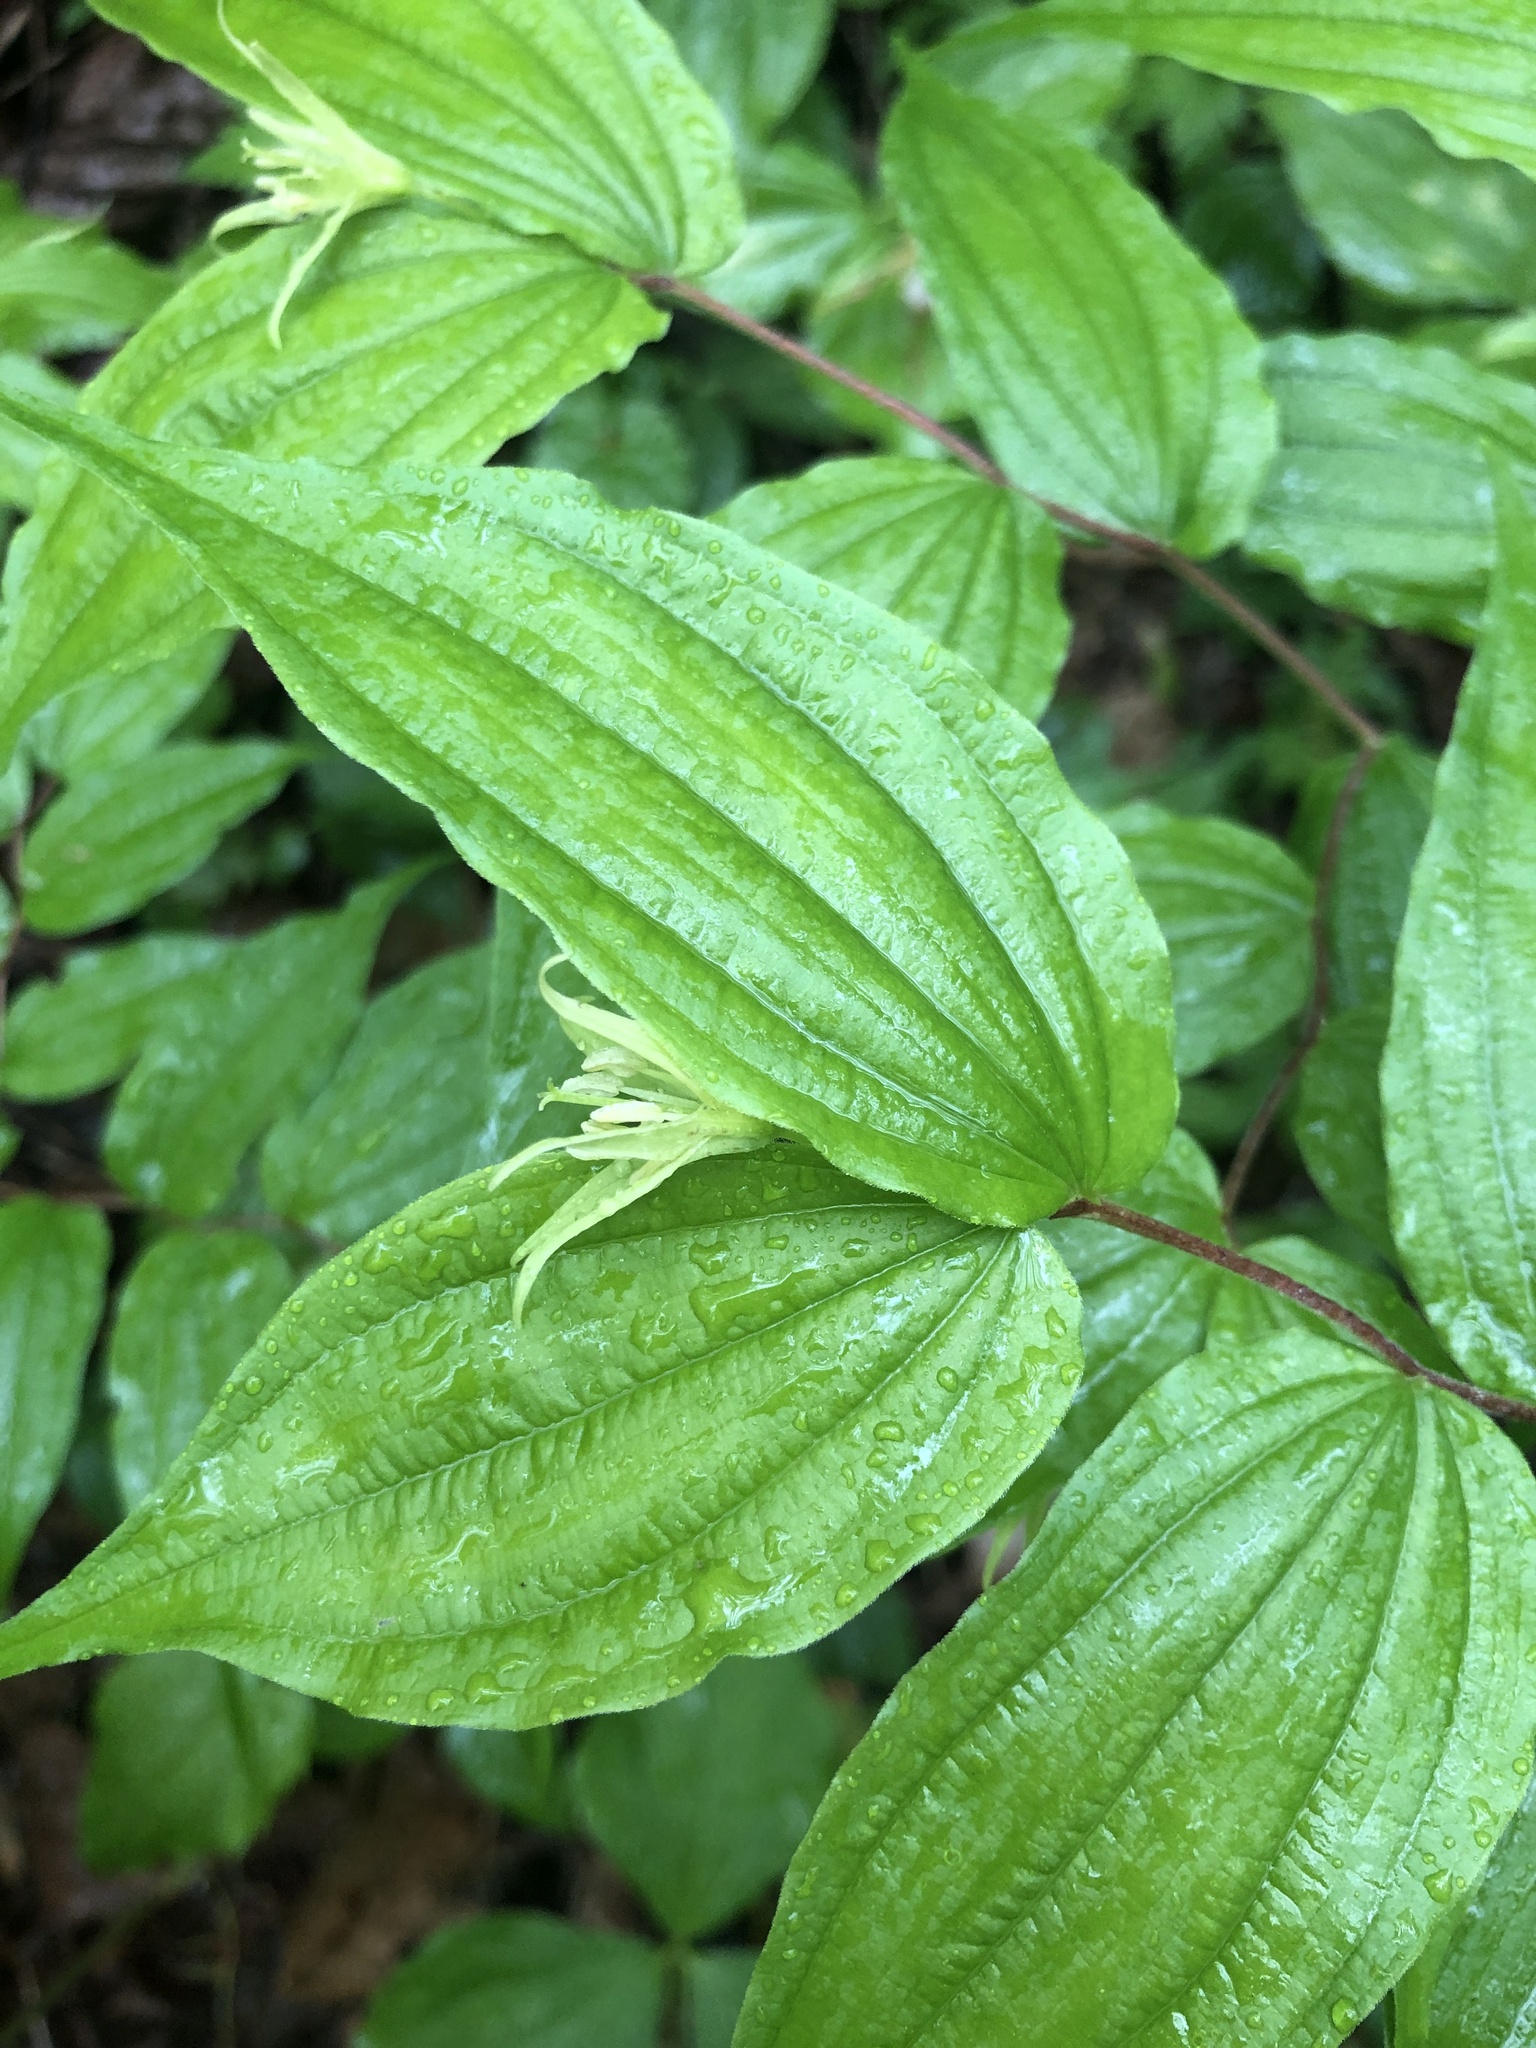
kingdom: Plantae
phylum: Tracheophyta
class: Liliopsida
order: Liliales
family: Liliaceae
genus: Prosartes
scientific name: Prosartes lanuginosa
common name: Hairy mandarin
